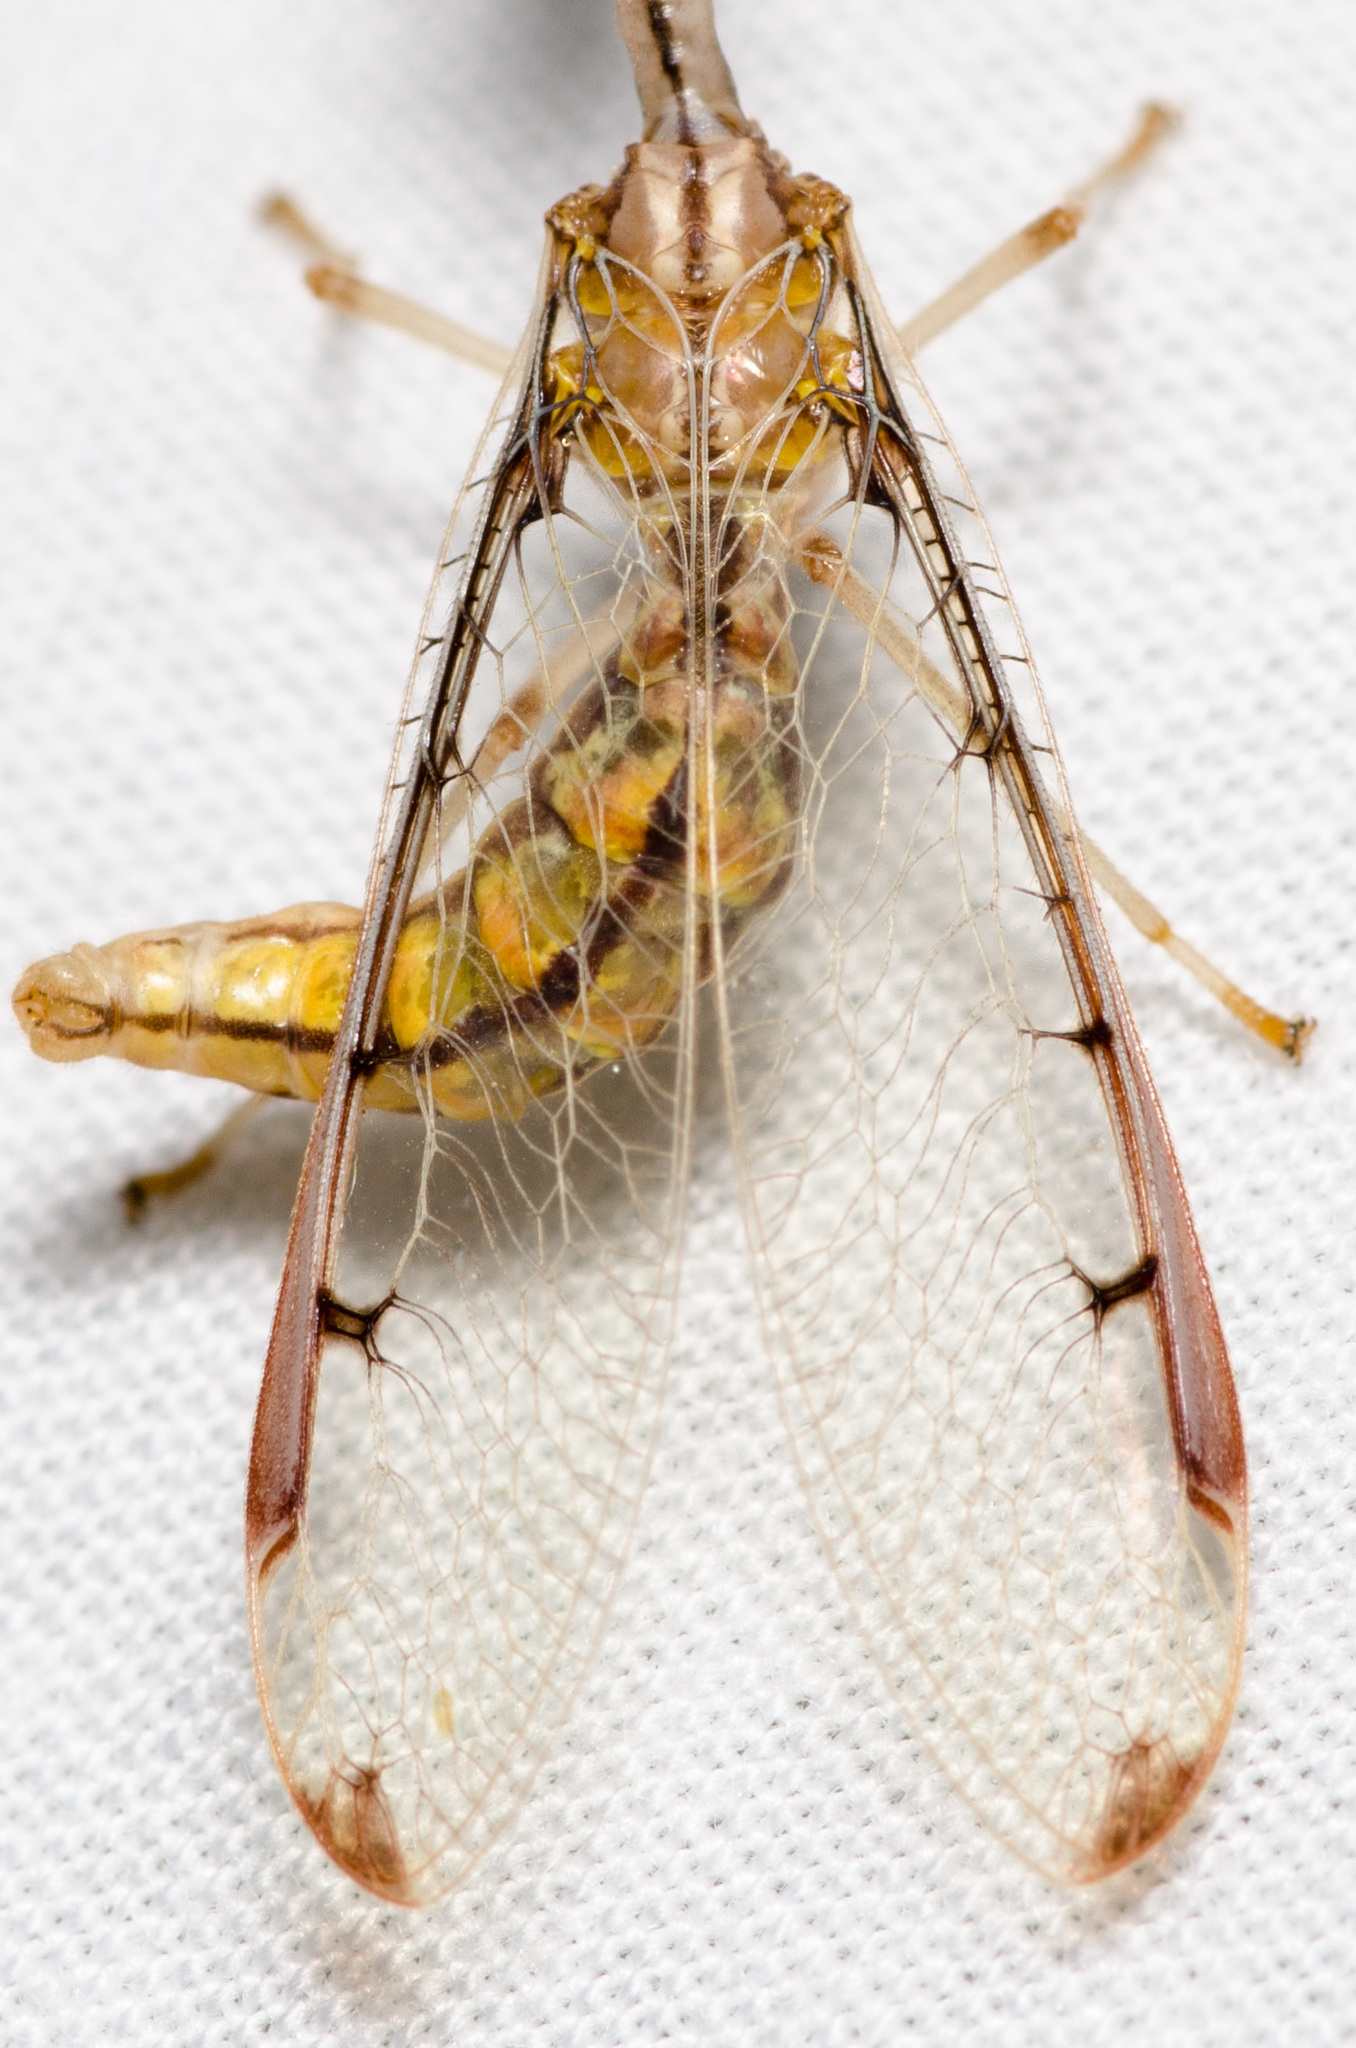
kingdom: Animalia
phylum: Arthropoda
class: Insecta
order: Neuroptera
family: Mantispidae
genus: Dicromantispa
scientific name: Dicromantispa interrupta
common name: Four-spotted mantidfly
